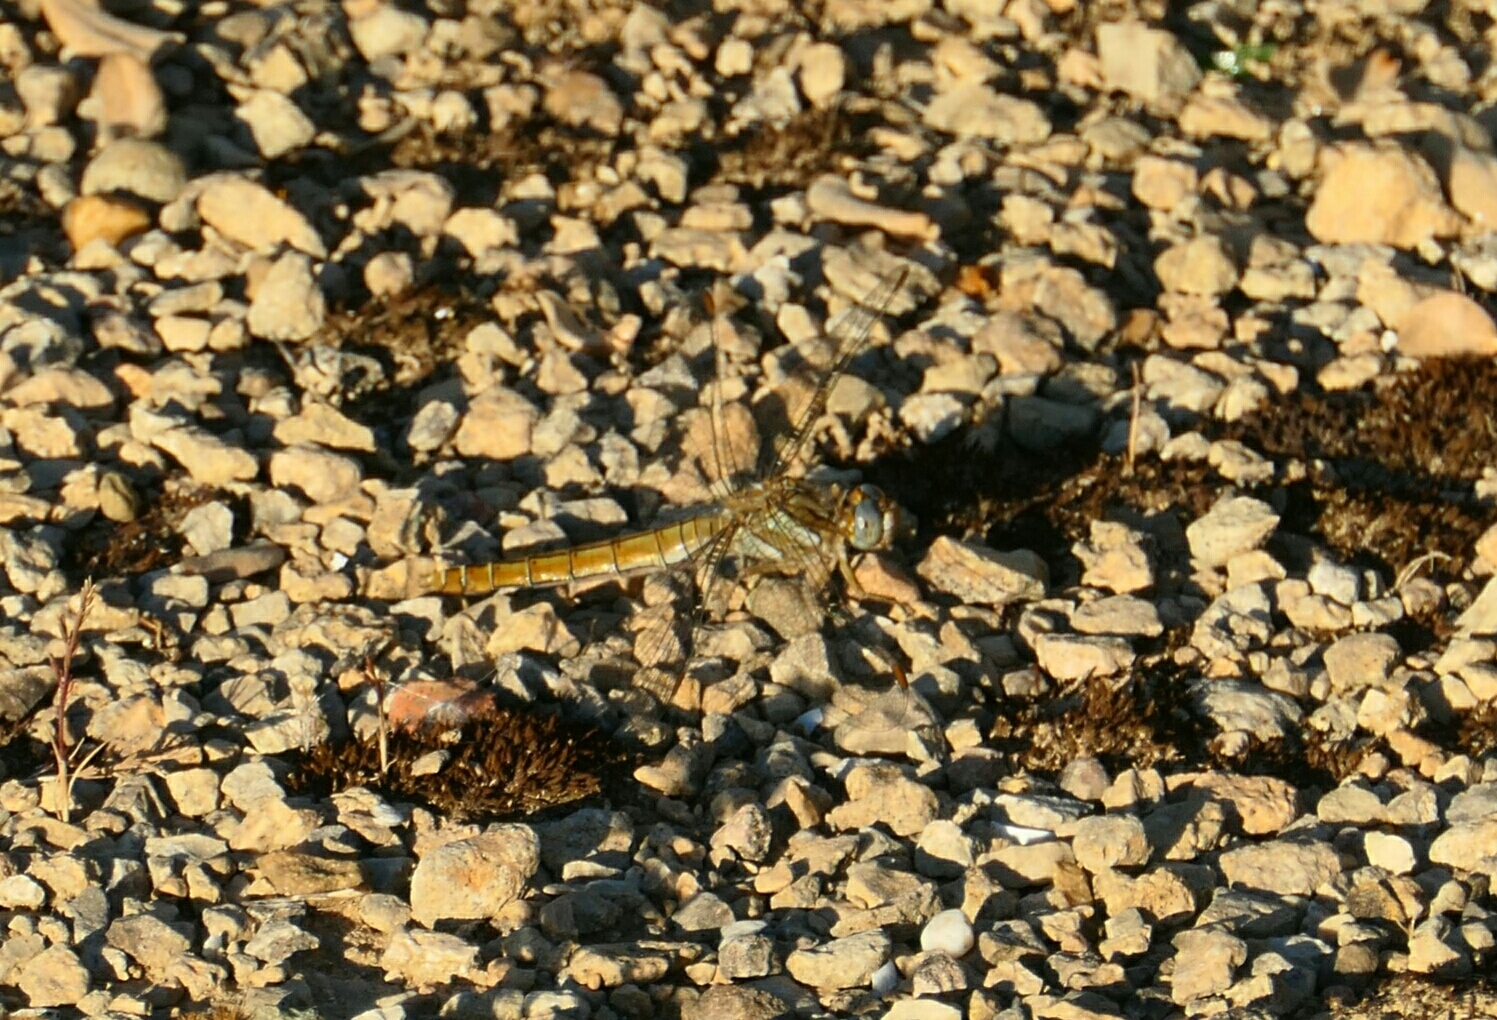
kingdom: Animalia
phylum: Arthropoda
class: Insecta
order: Odonata
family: Libellulidae
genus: Orthetrum
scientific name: Orthetrum brunneum
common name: Southern skimmer
